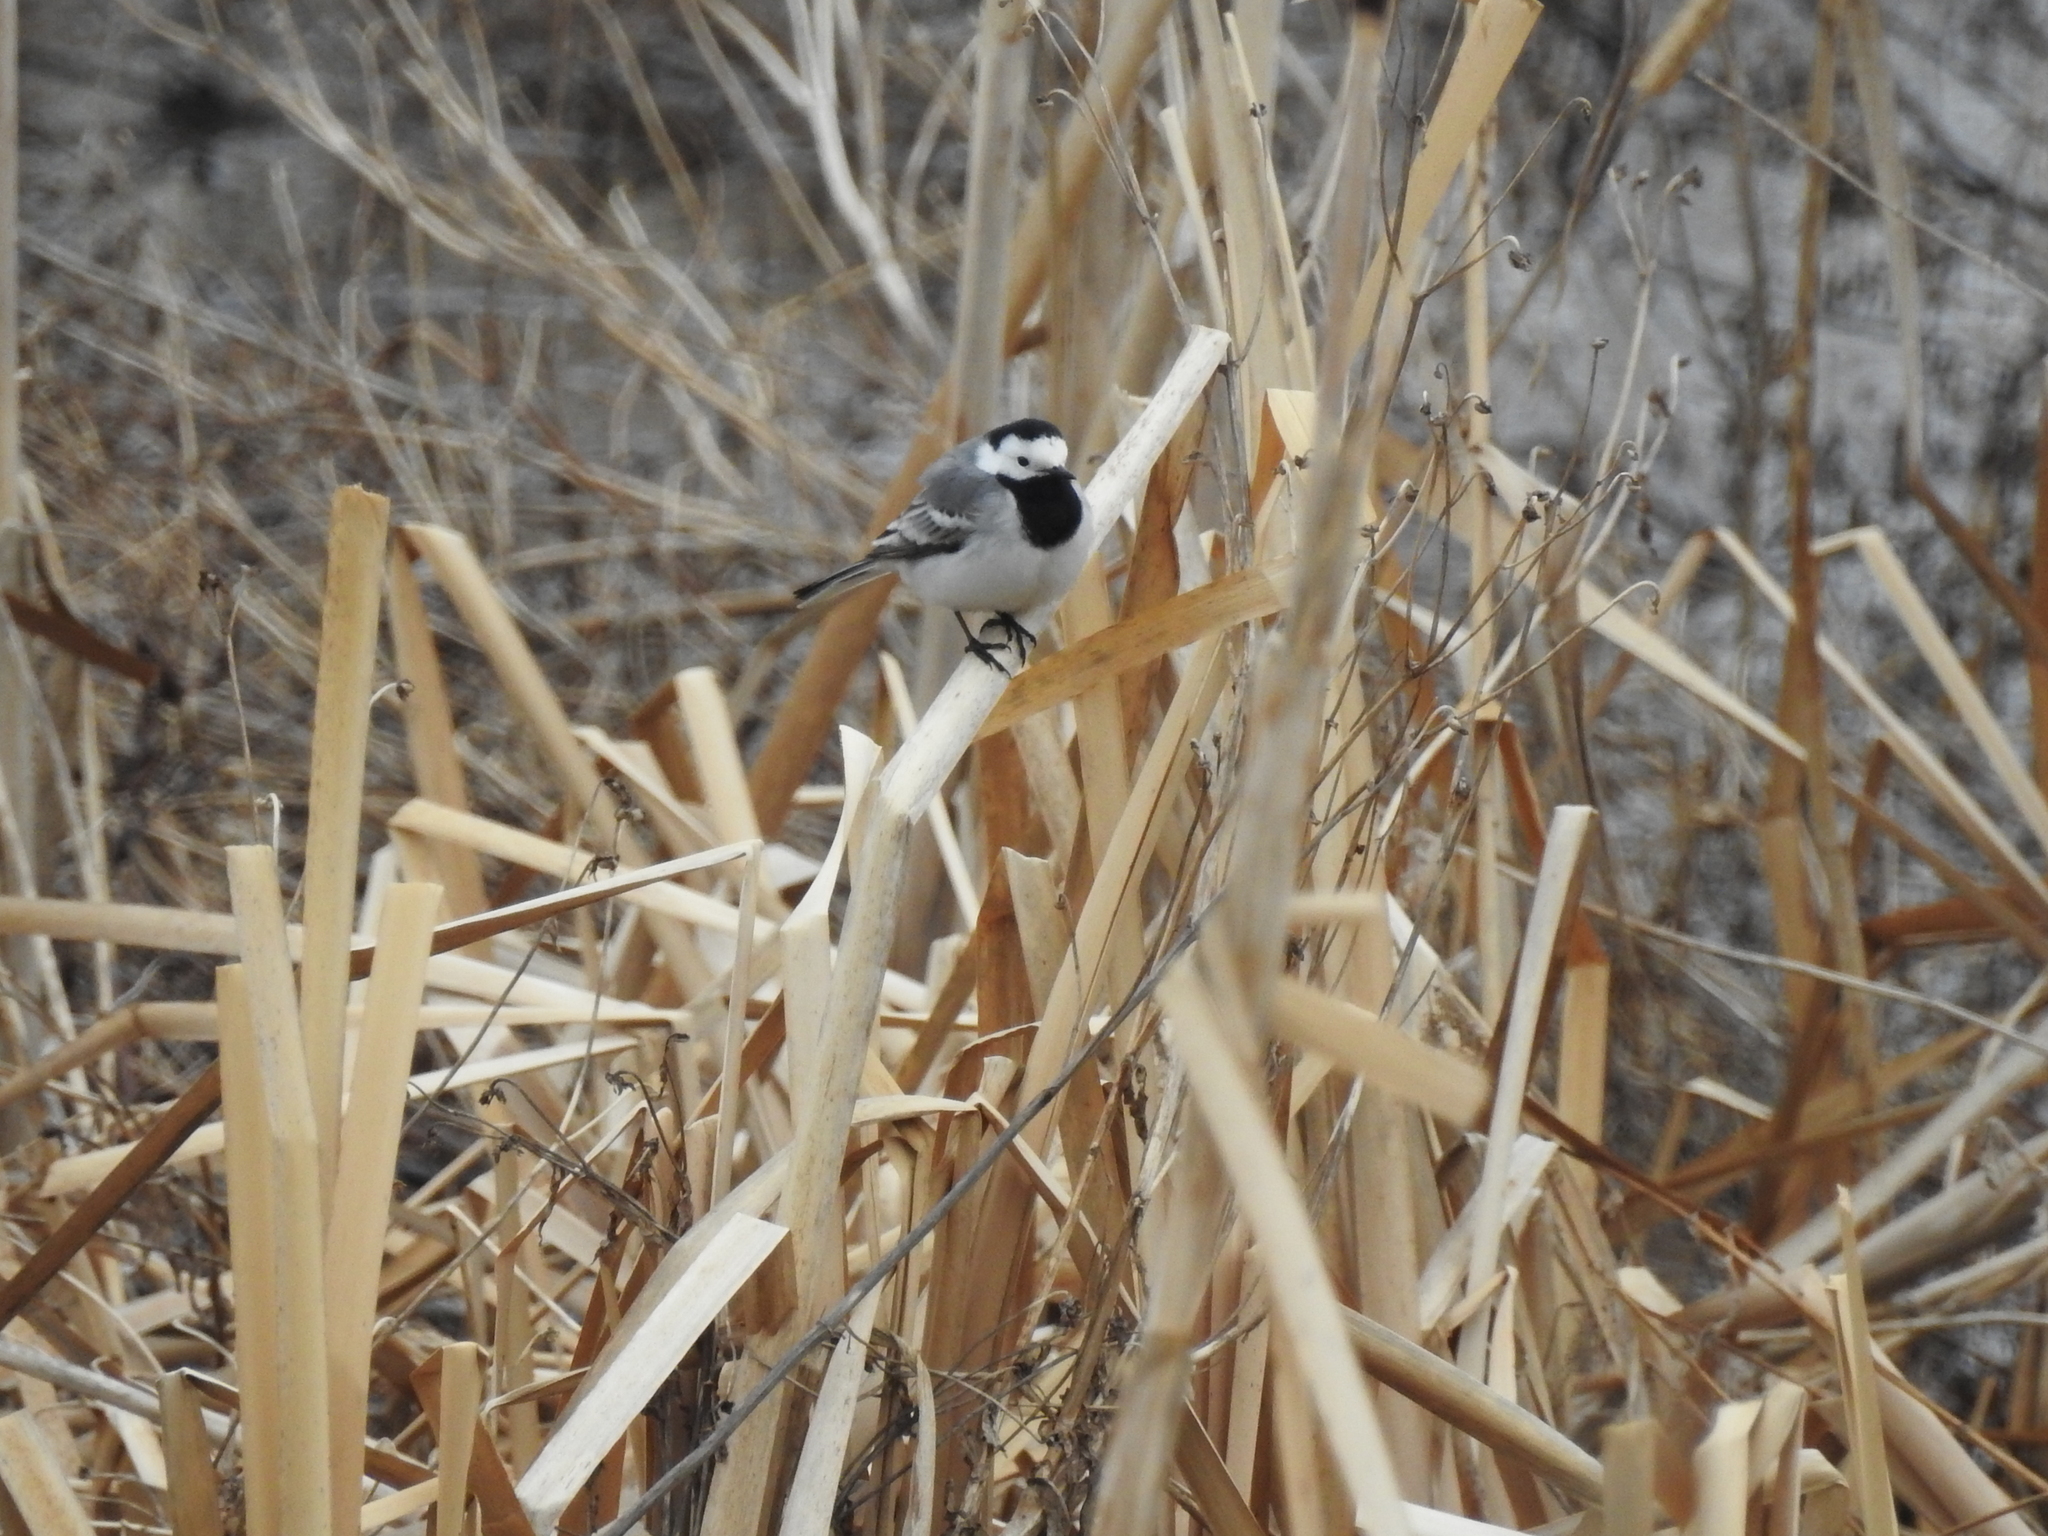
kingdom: Animalia
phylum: Chordata
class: Aves
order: Passeriformes
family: Motacillidae
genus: Motacilla
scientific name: Motacilla alba
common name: White wagtail
